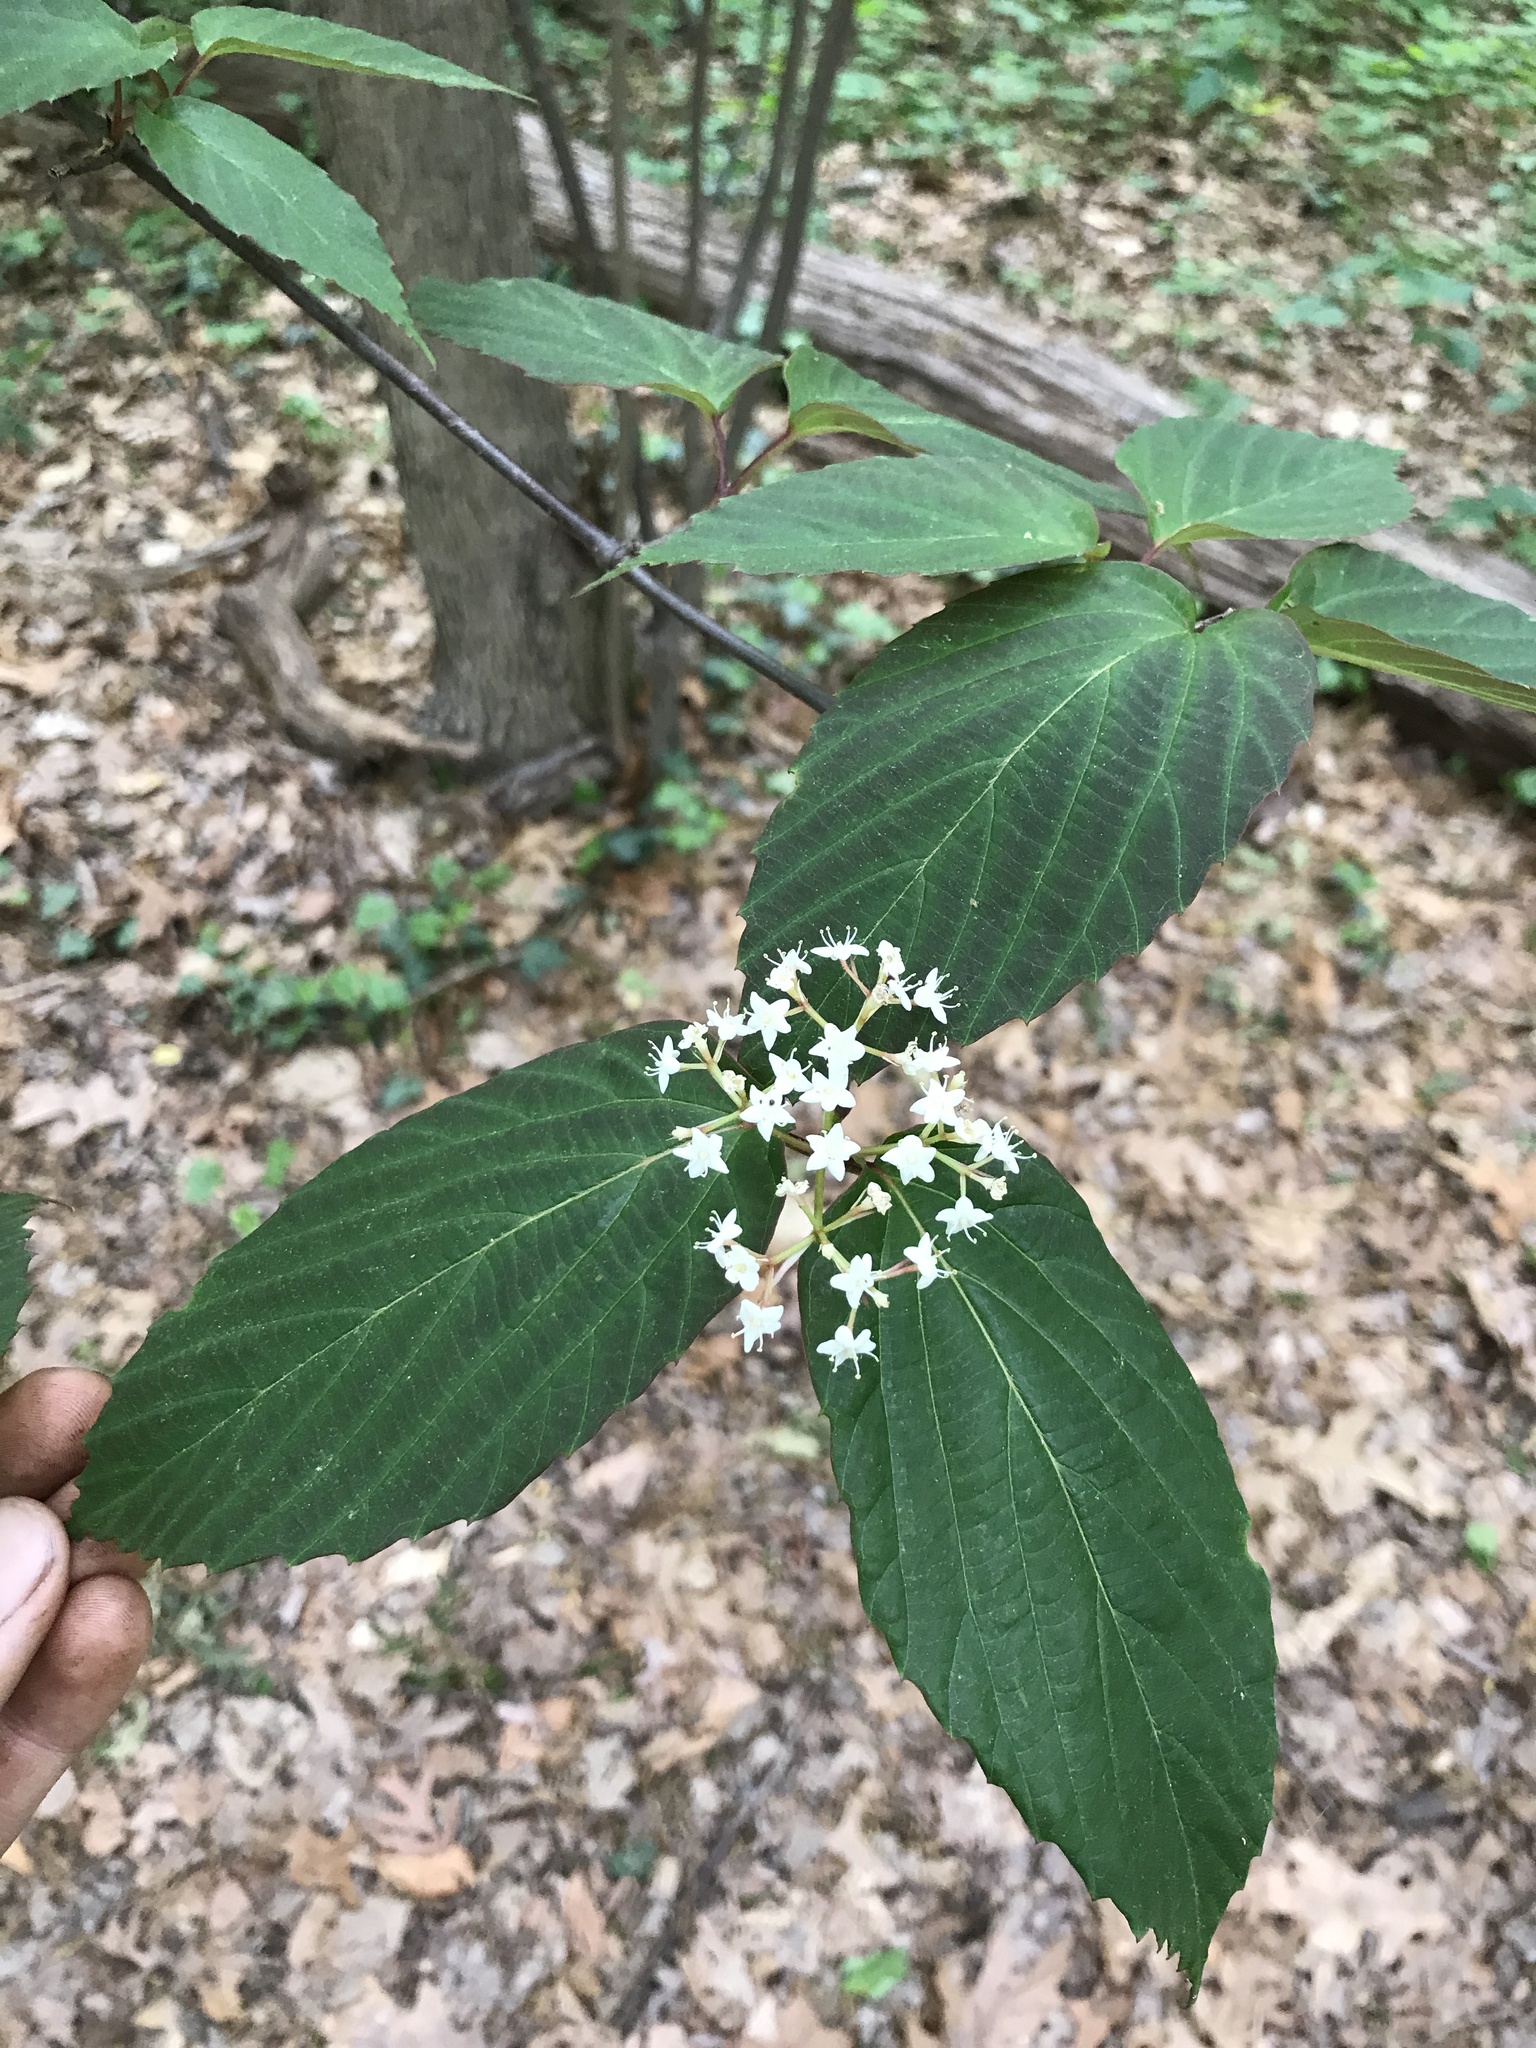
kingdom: Plantae
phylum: Tracheophyta
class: Magnoliopsida
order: Dipsacales
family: Viburnaceae
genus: Viburnum
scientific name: Viburnum setigerum
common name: Tea viburnum
